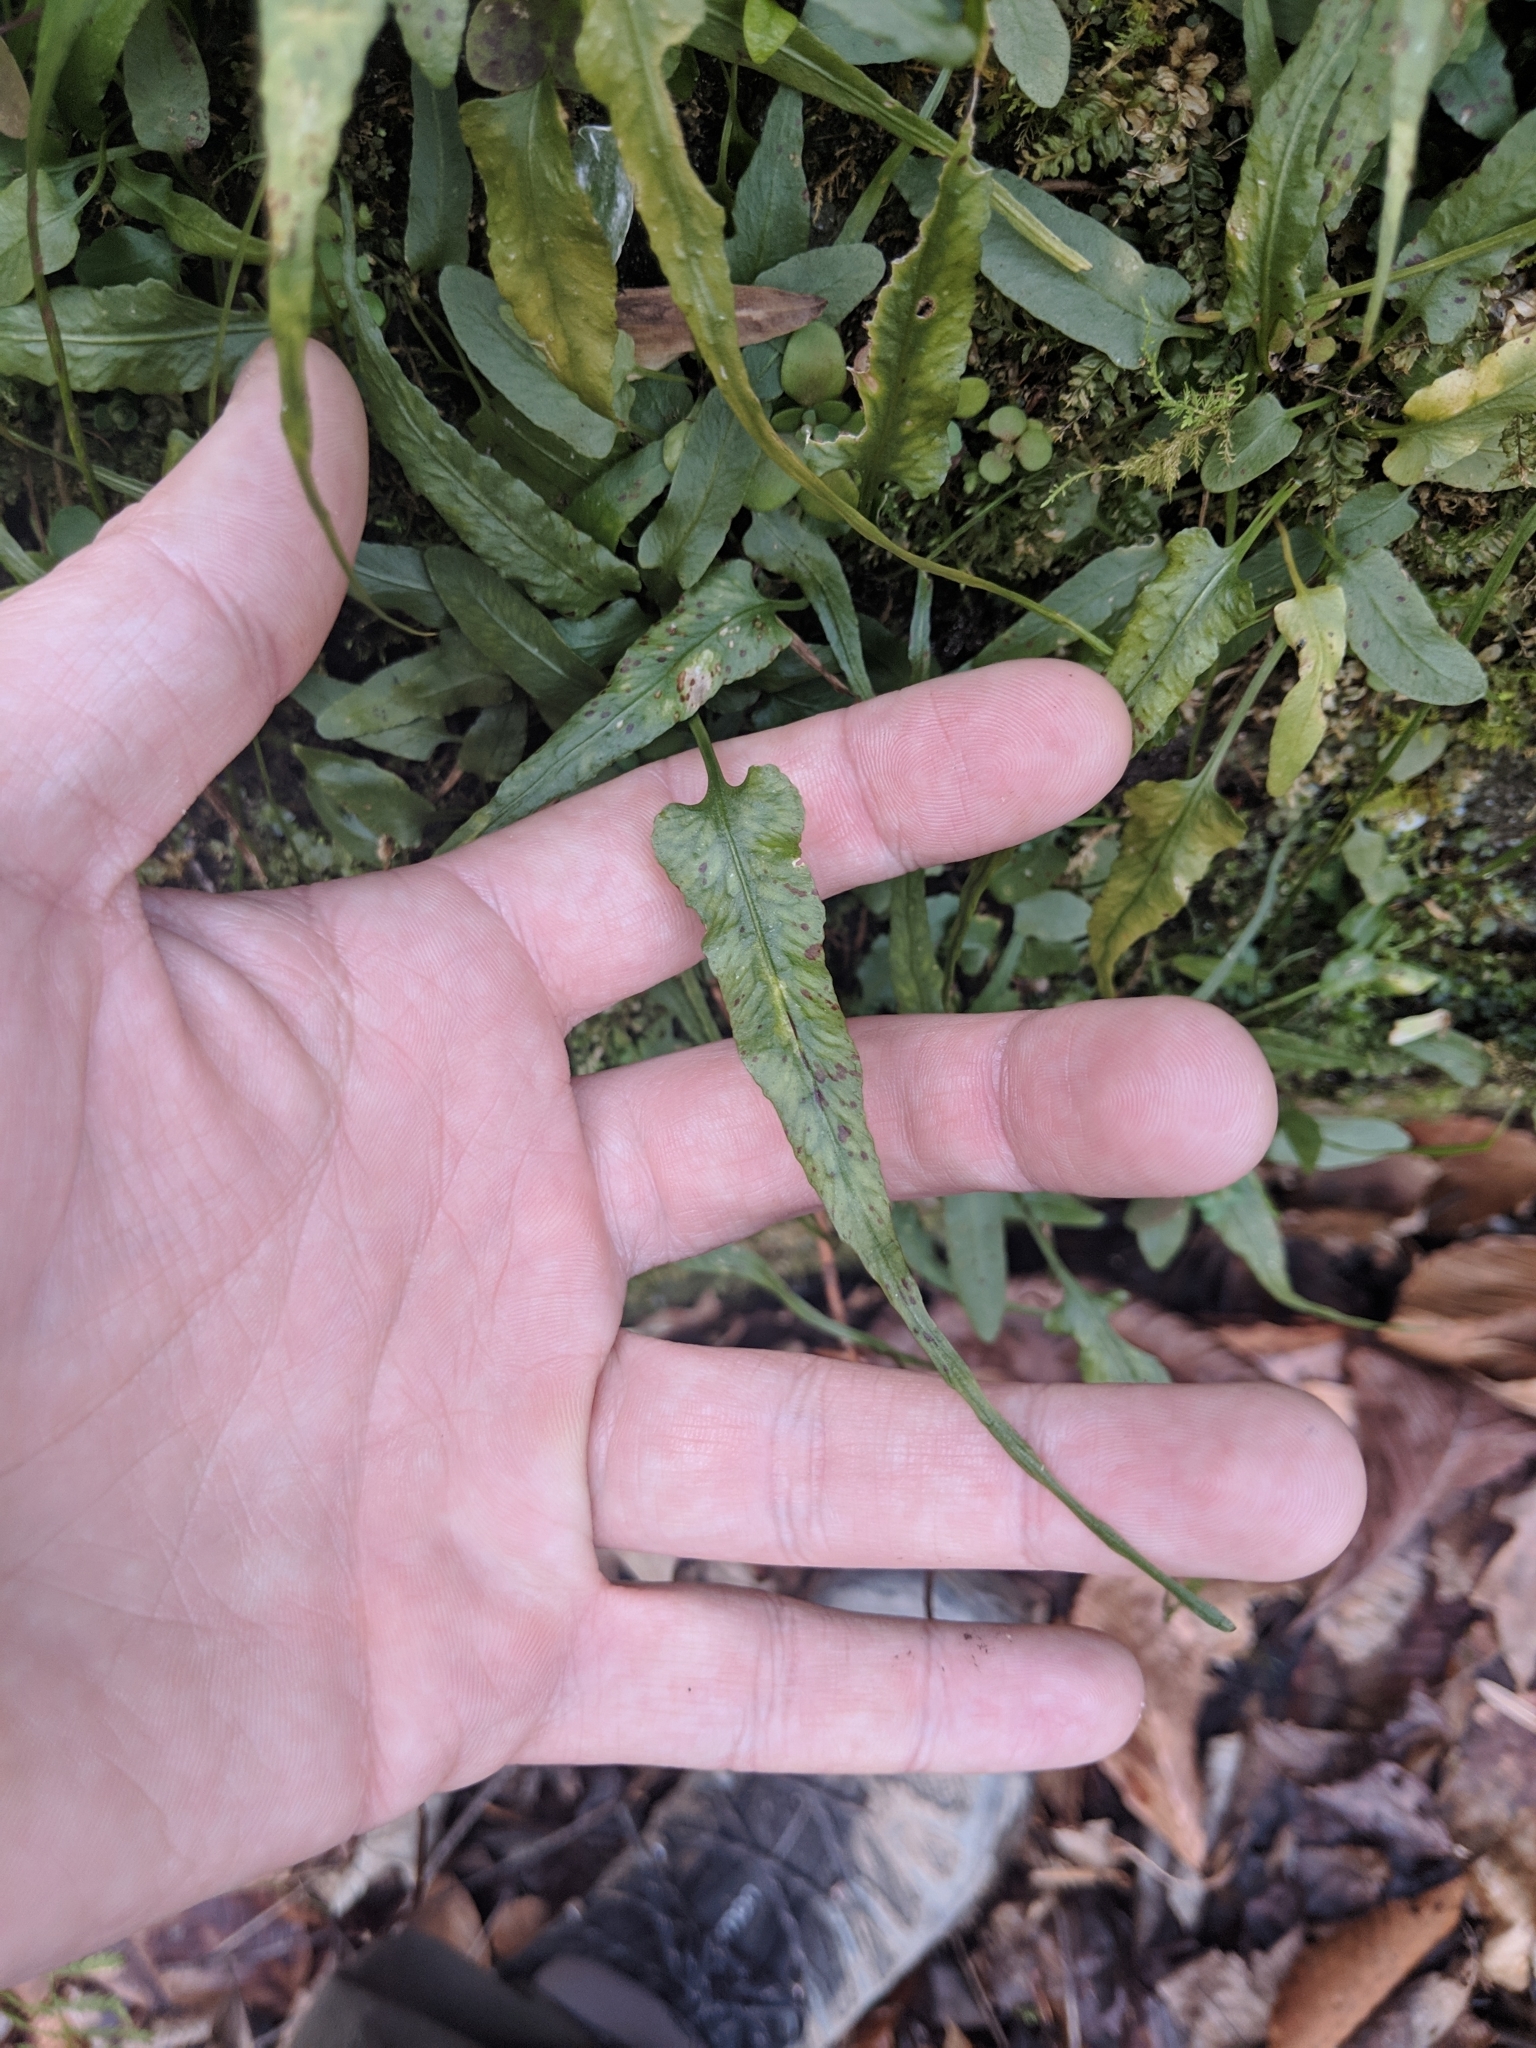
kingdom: Plantae
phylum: Tracheophyta
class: Polypodiopsida
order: Polypodiales
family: Aspleniaceae
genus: Asplenium
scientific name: Asplenium rhizophyllum
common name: Walking fern
